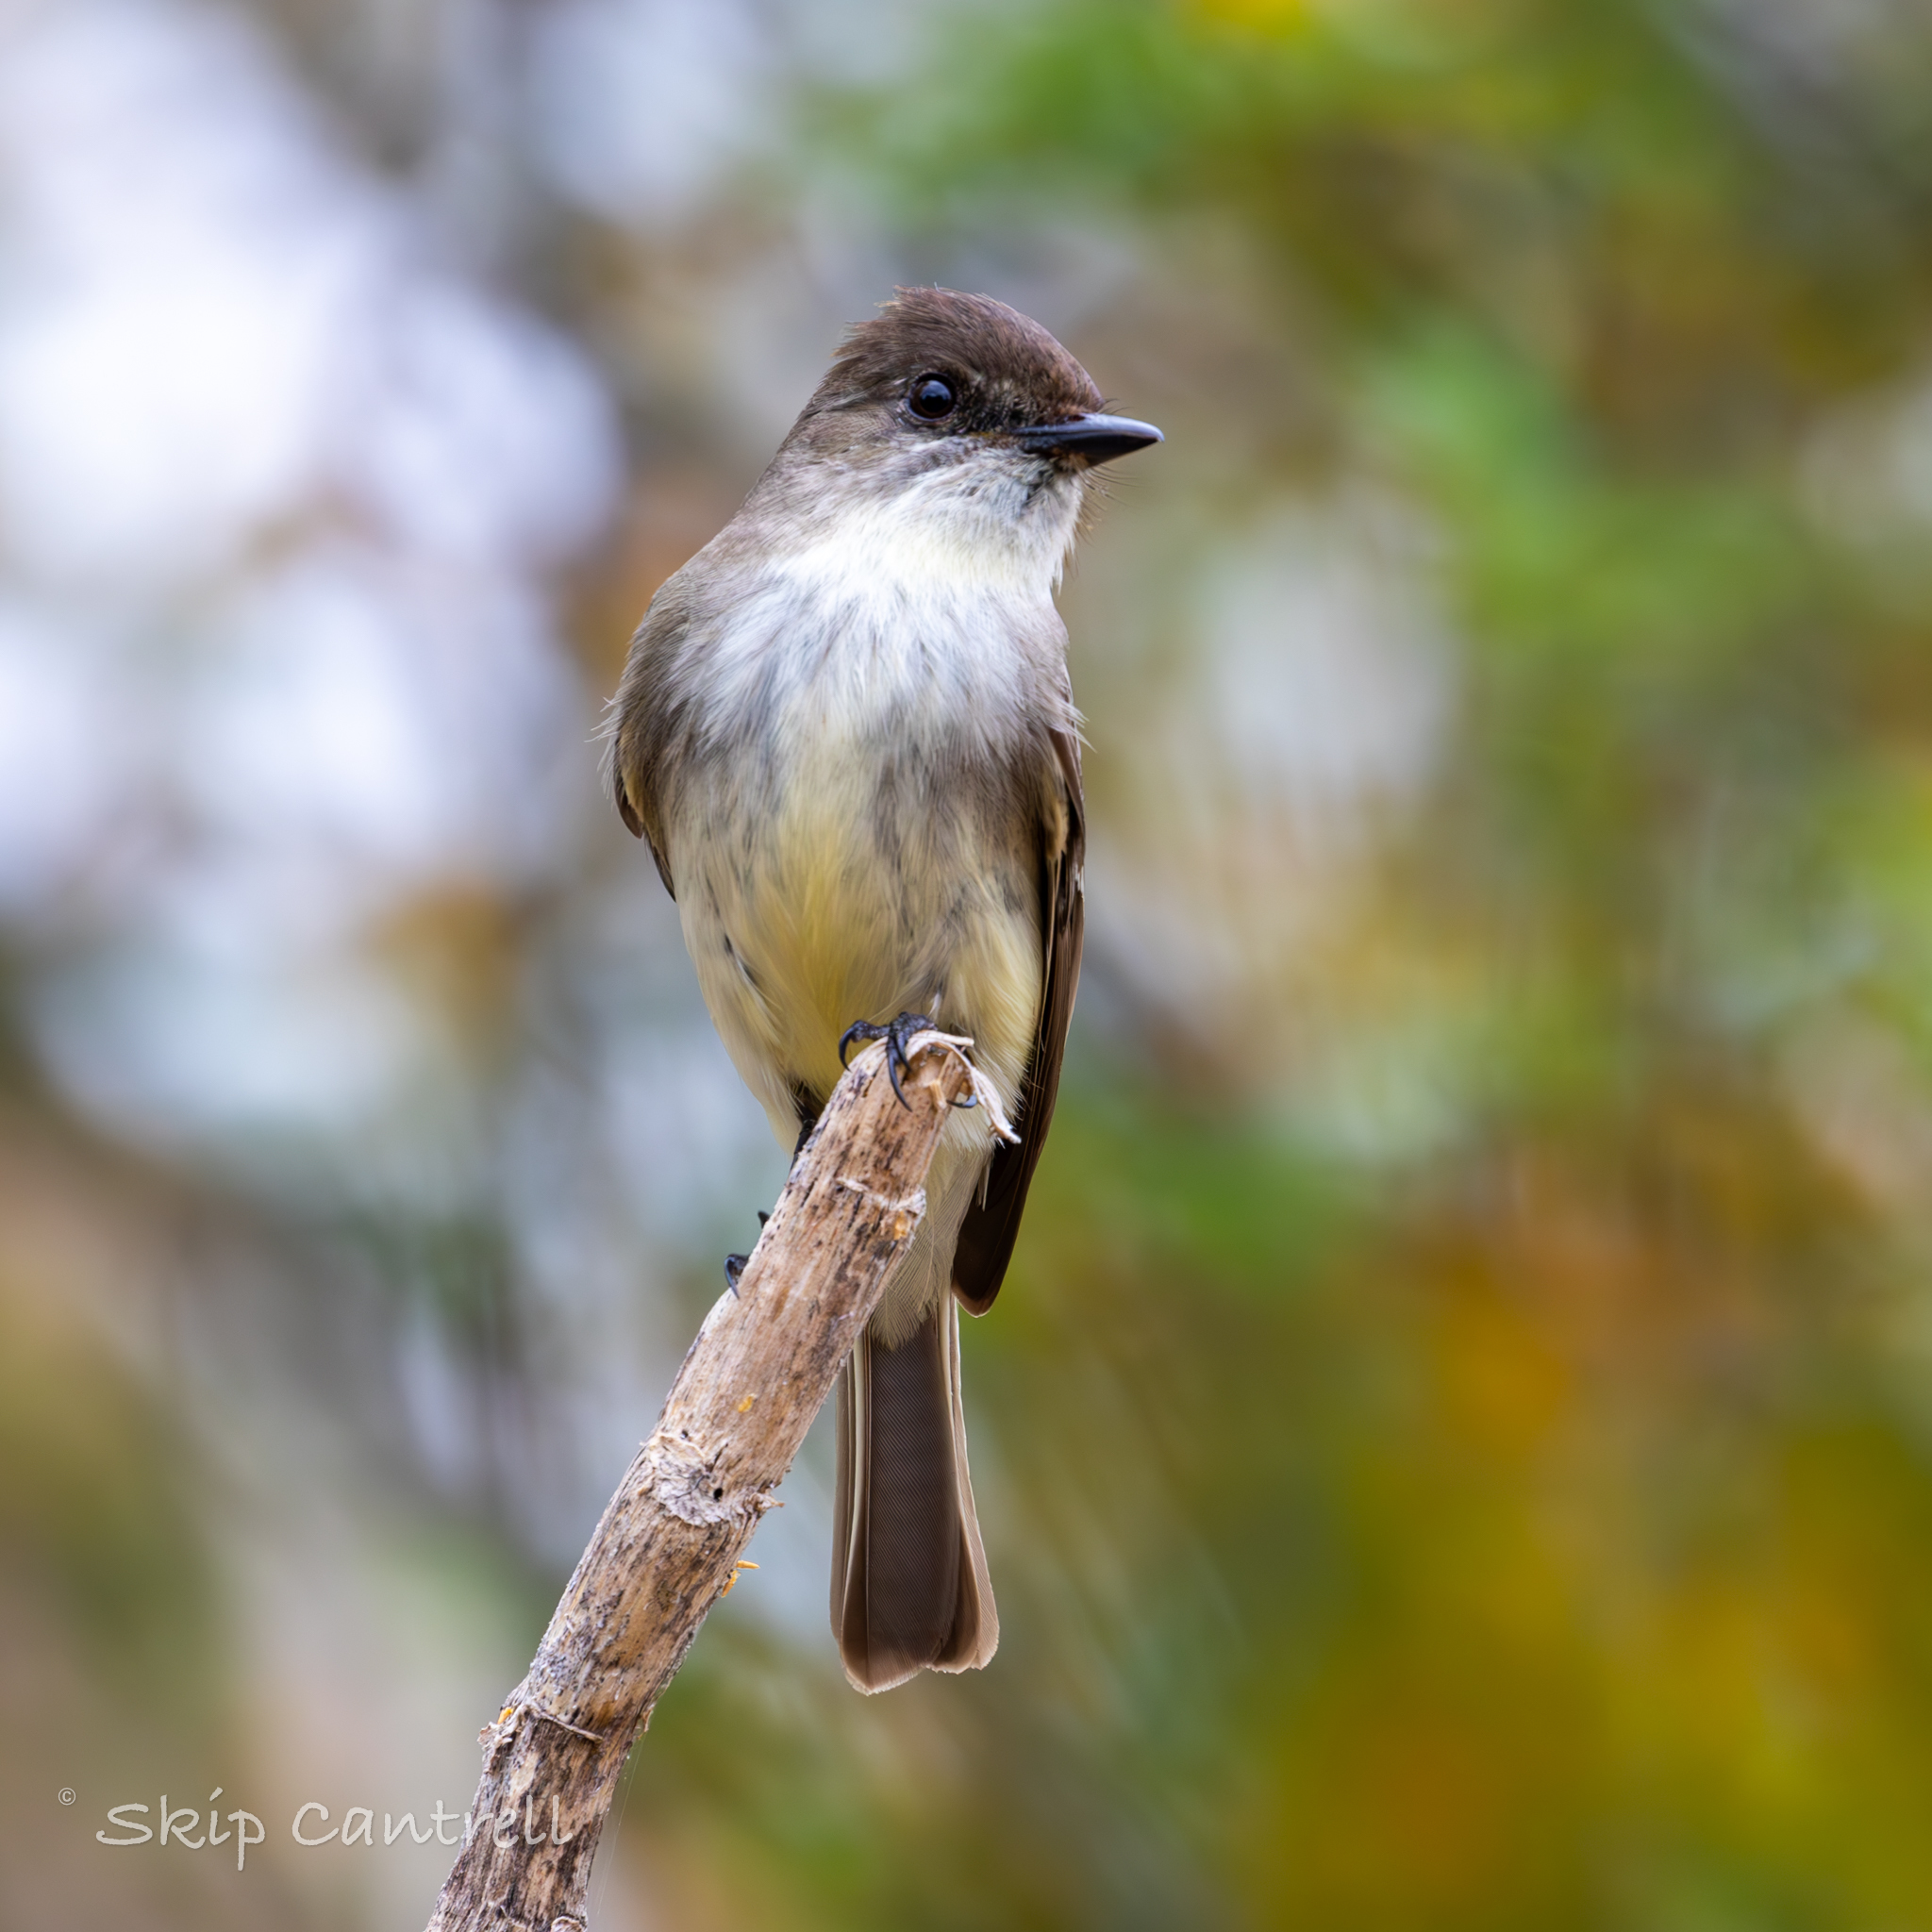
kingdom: Animalia
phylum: Chordata
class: Aves
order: Passeriformes
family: Tyrannidae
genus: Sayornis
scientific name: Sayornis phoebe
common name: Eastern phoebe
